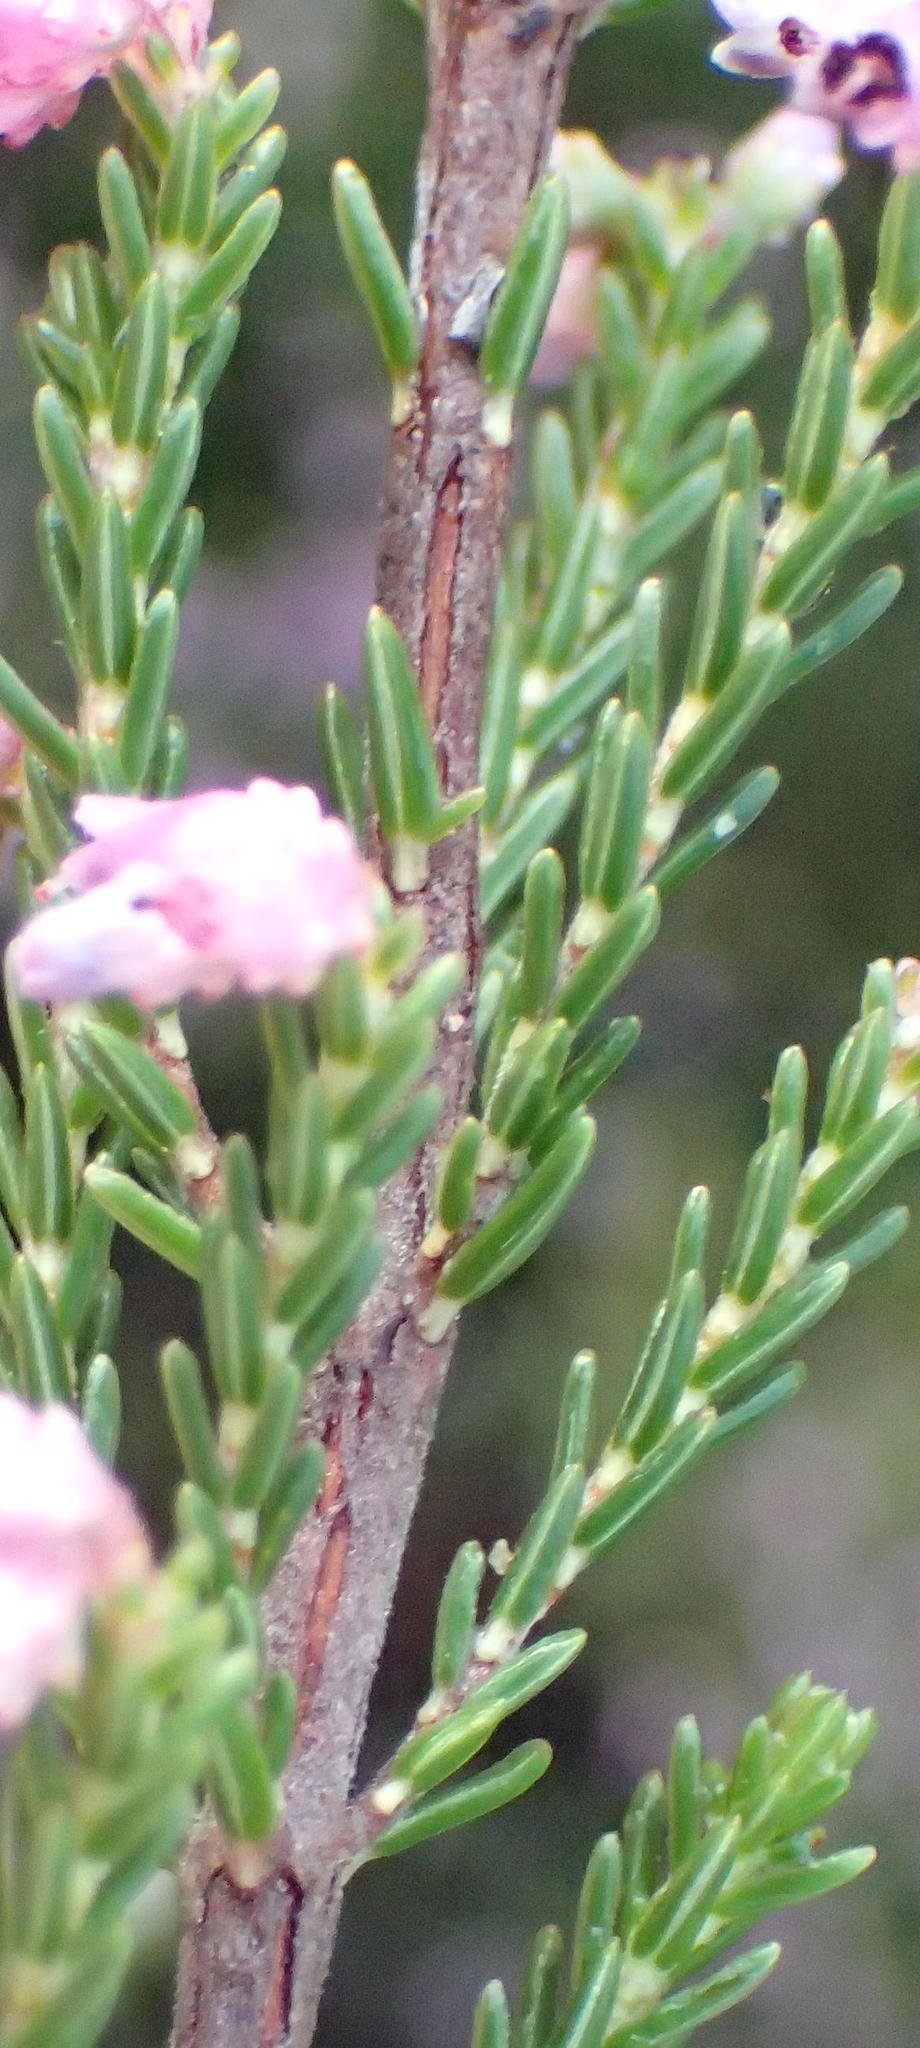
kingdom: Plantae
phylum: Tracheophyta
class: Magnoliopsida
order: Ericales
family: Ericaceae
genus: Erica
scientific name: Erica vlokii
